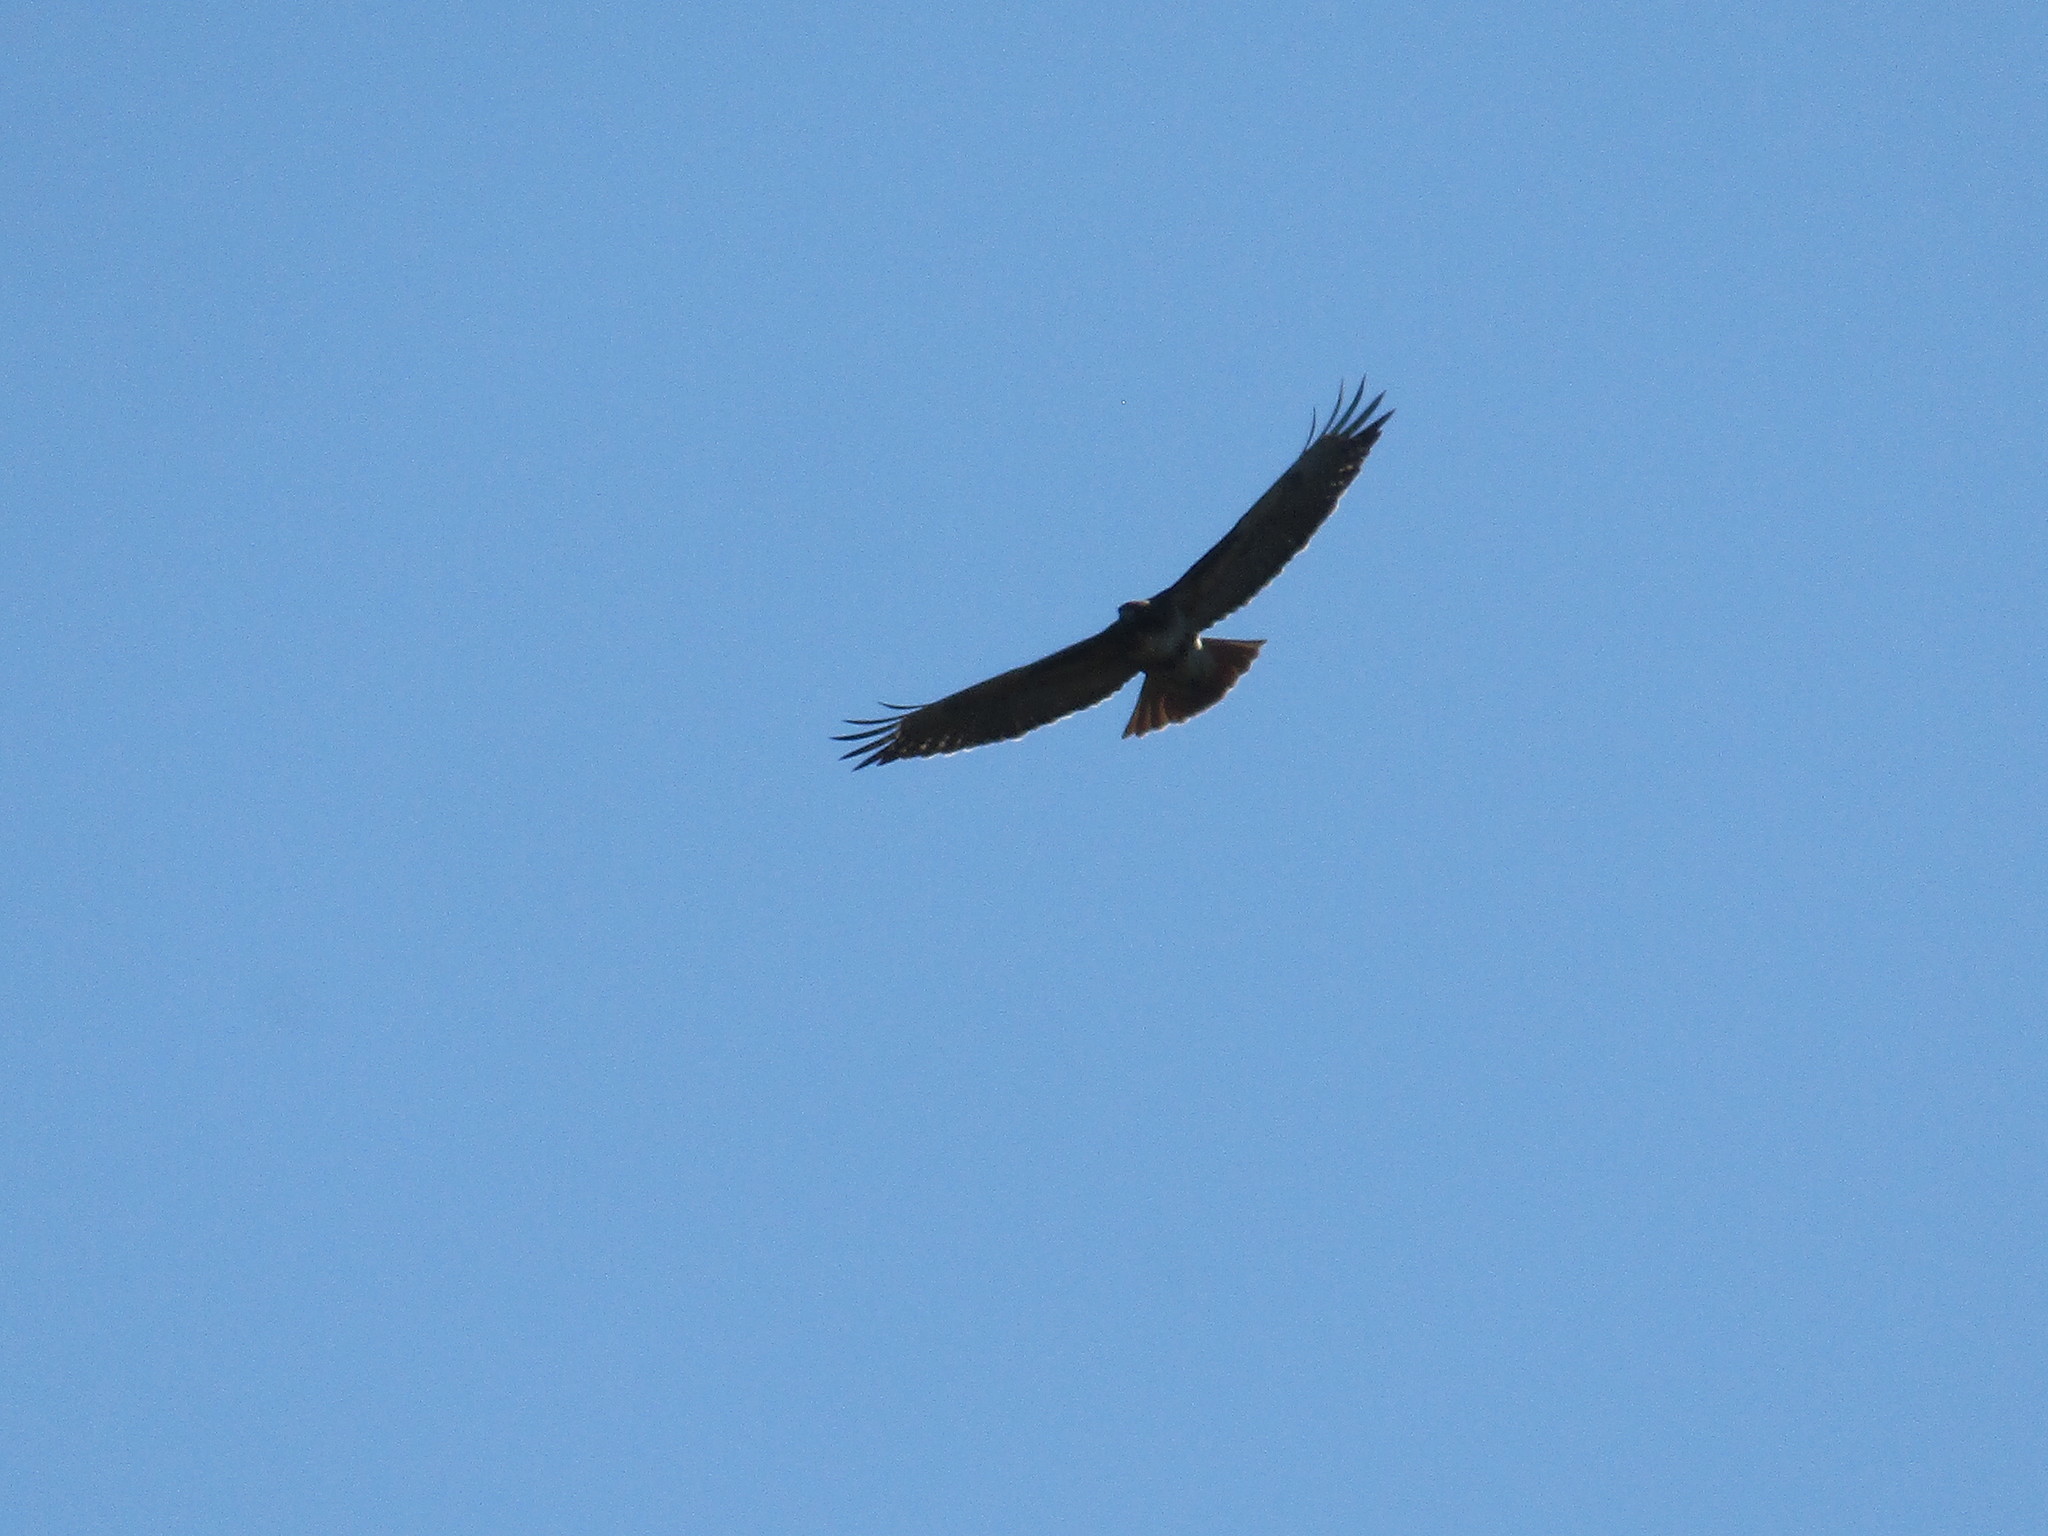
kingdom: Animalia
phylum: Chordata
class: Aves
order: Accipitriformes
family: Accipitridae
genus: Buteo
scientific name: Buteo jamaicensis
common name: Red-tailed hawk
